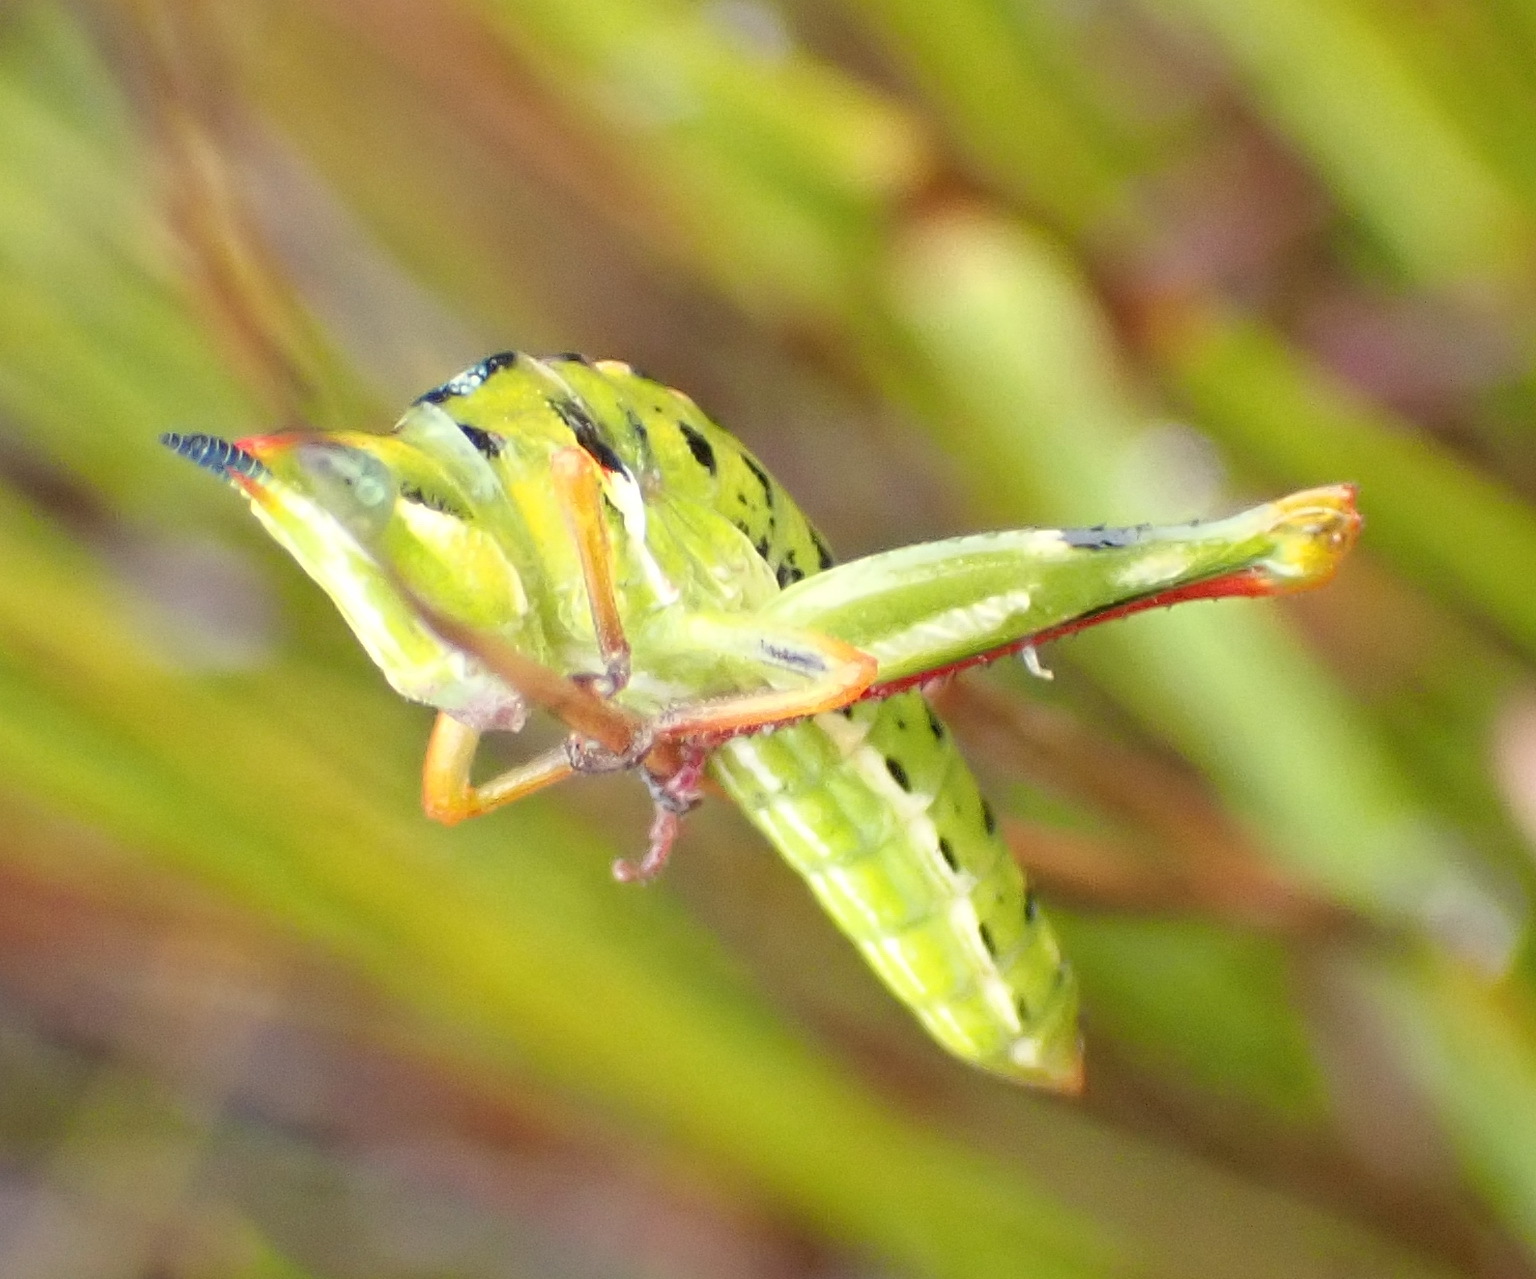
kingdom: Animalia
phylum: Arthropoda
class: Insecta
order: Orthoptera
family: Thericleidae
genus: Thericlesiella
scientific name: Thericlesiella meridionalis
